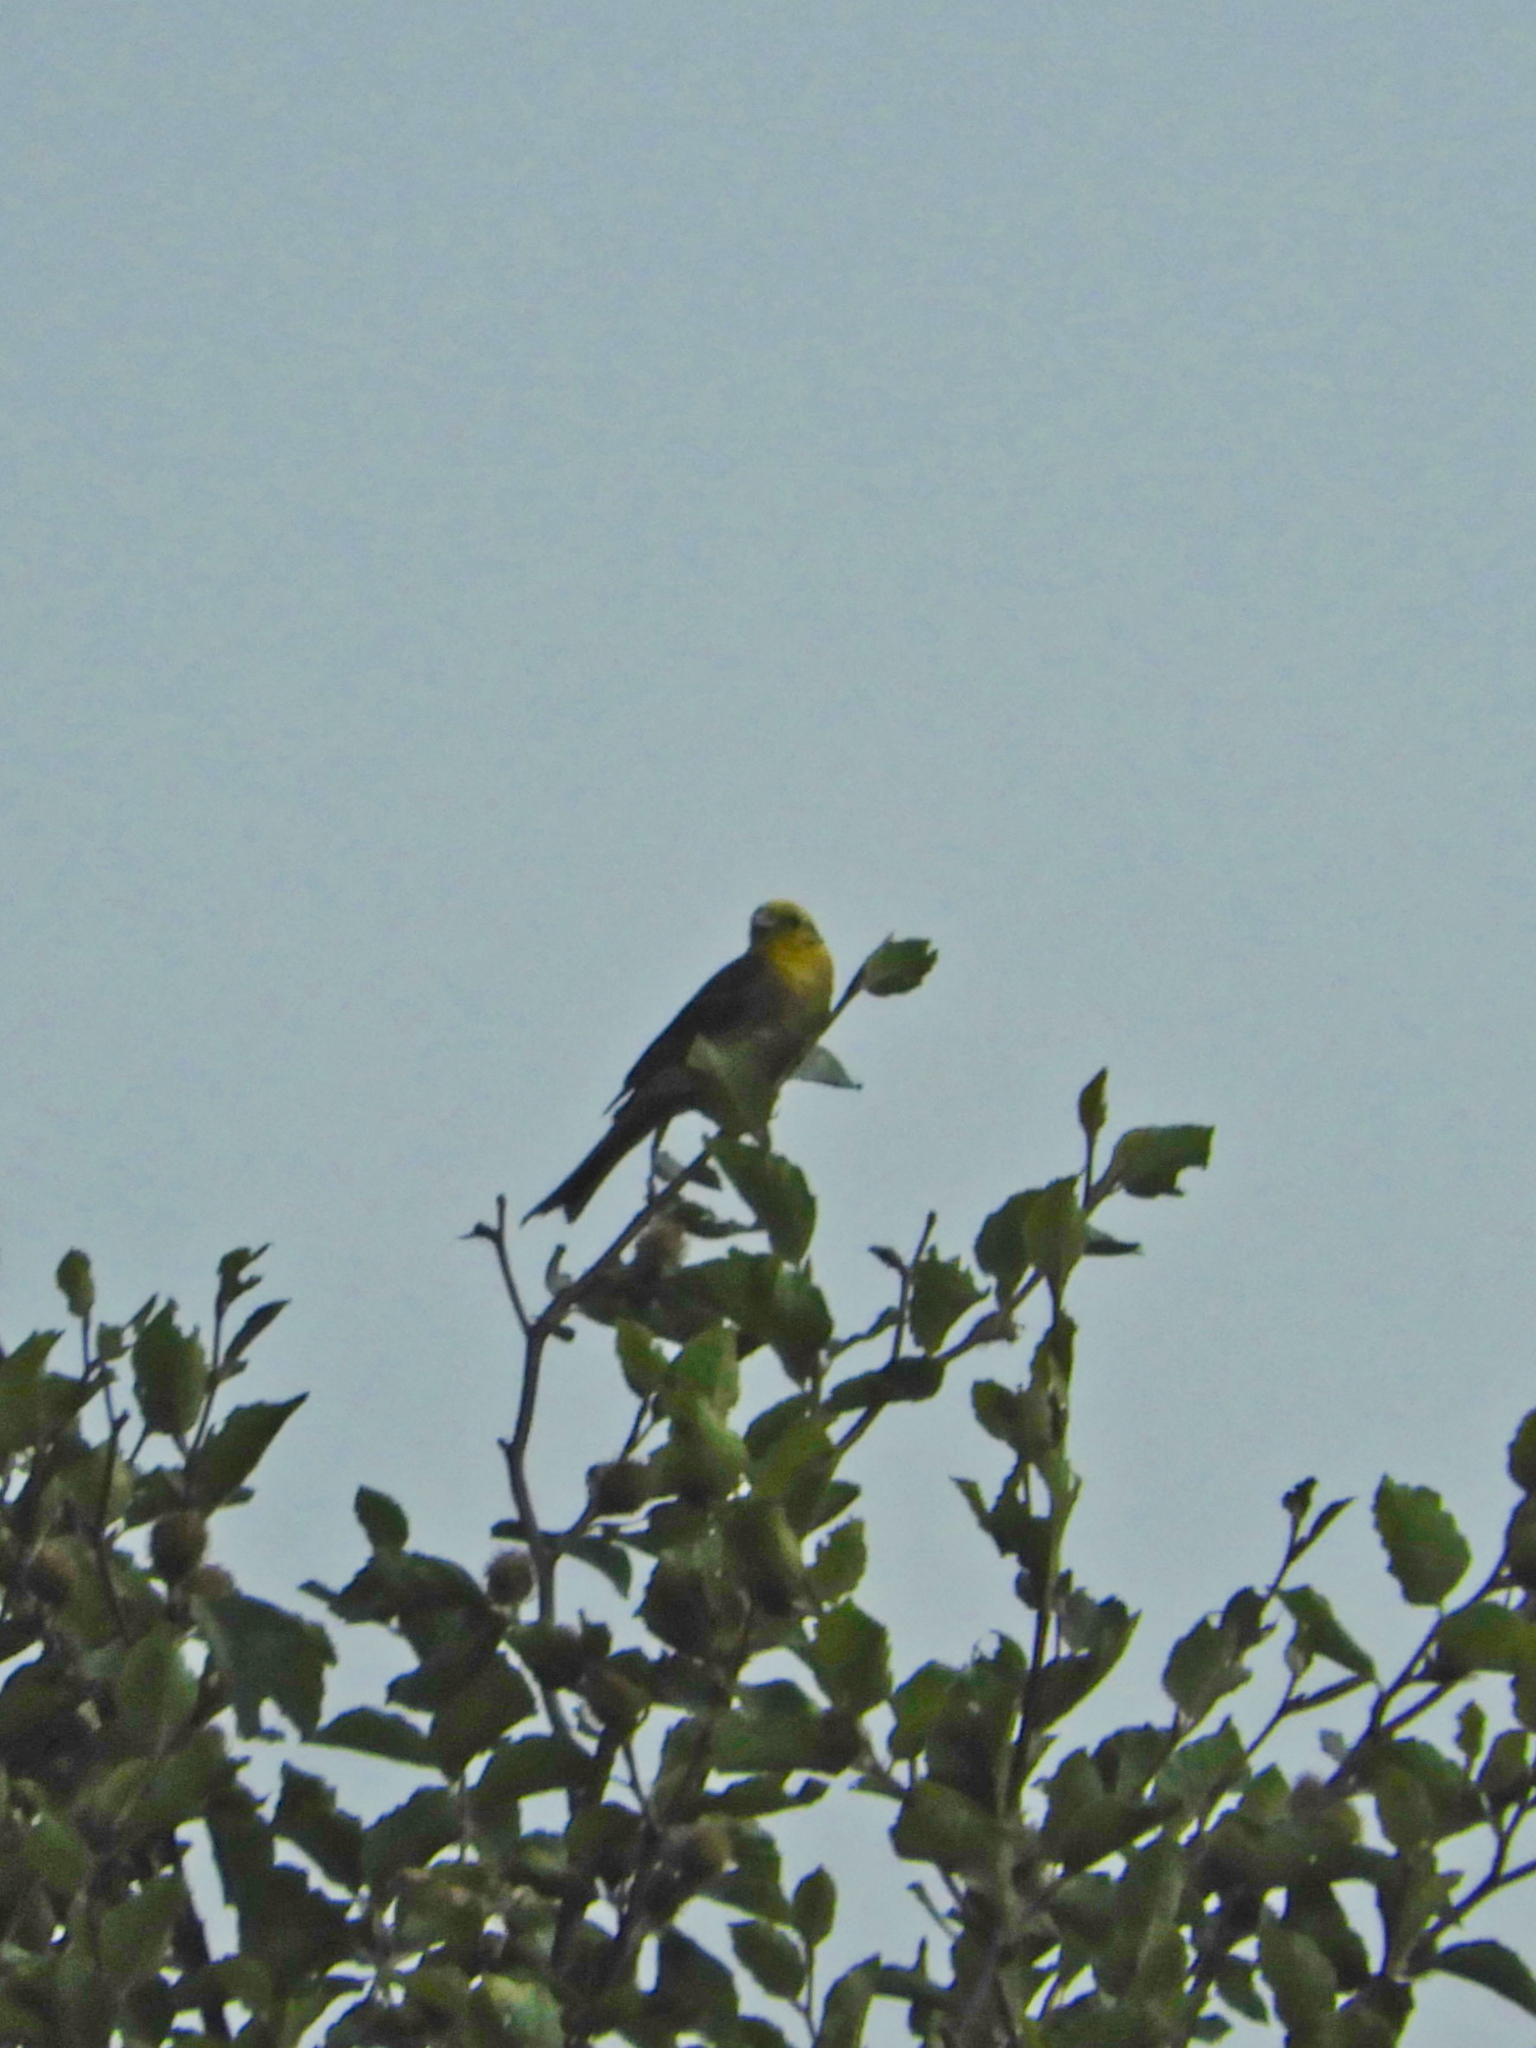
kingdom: Animalia
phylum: Chordata
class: Aves
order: Passeriformes
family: Emberizidae
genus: Emberiza
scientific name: Emberiza citrinella
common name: Yellowhammer
